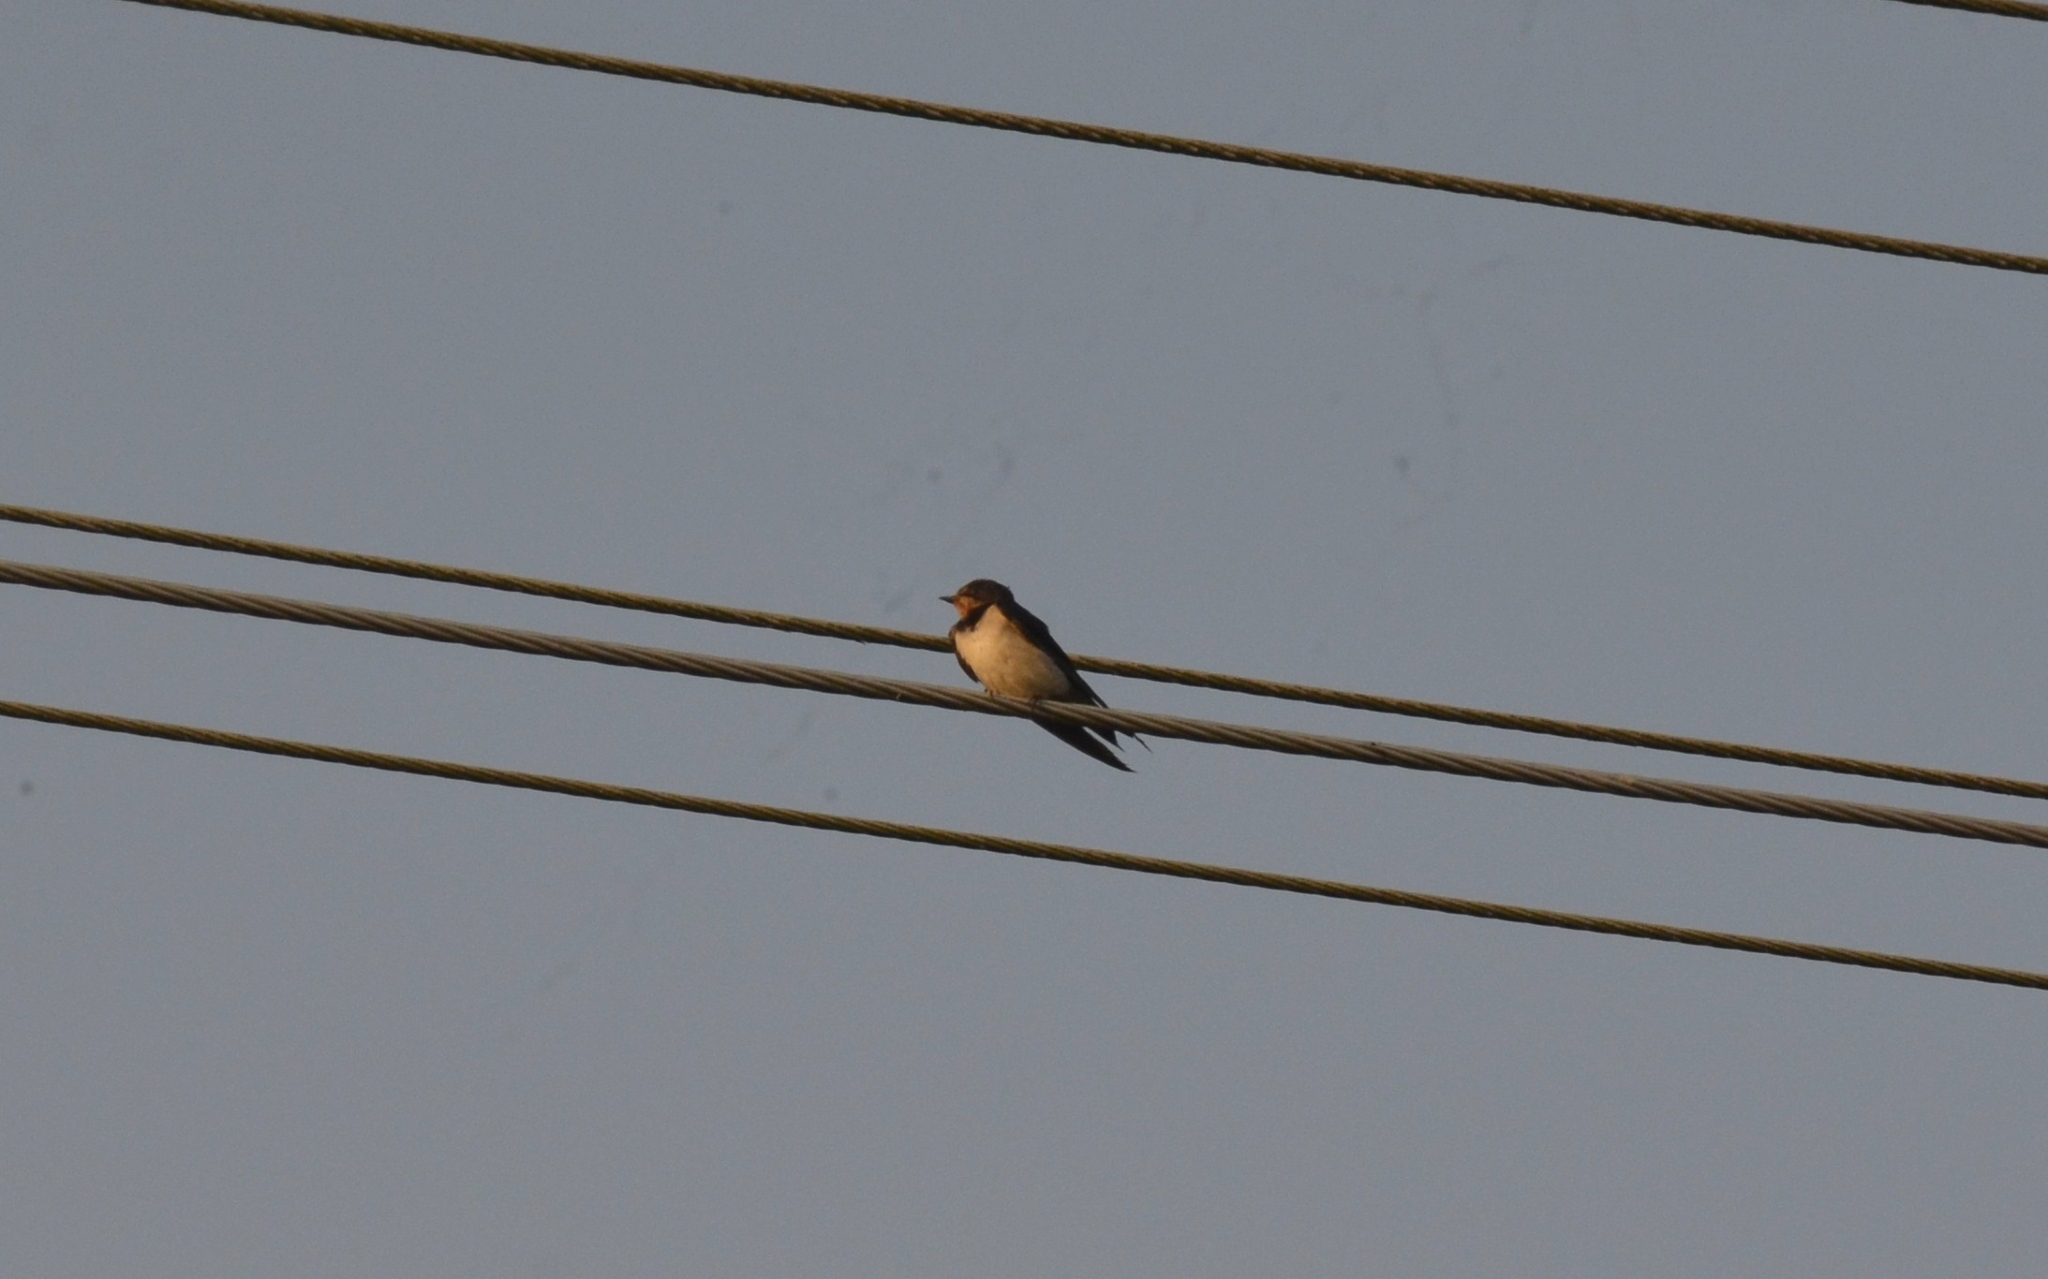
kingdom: Animalia
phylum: Chordata
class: Aves
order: Passeriformes
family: Hirundinidae
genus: Hirundo
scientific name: Hirundo rustica
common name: Barn swallow
